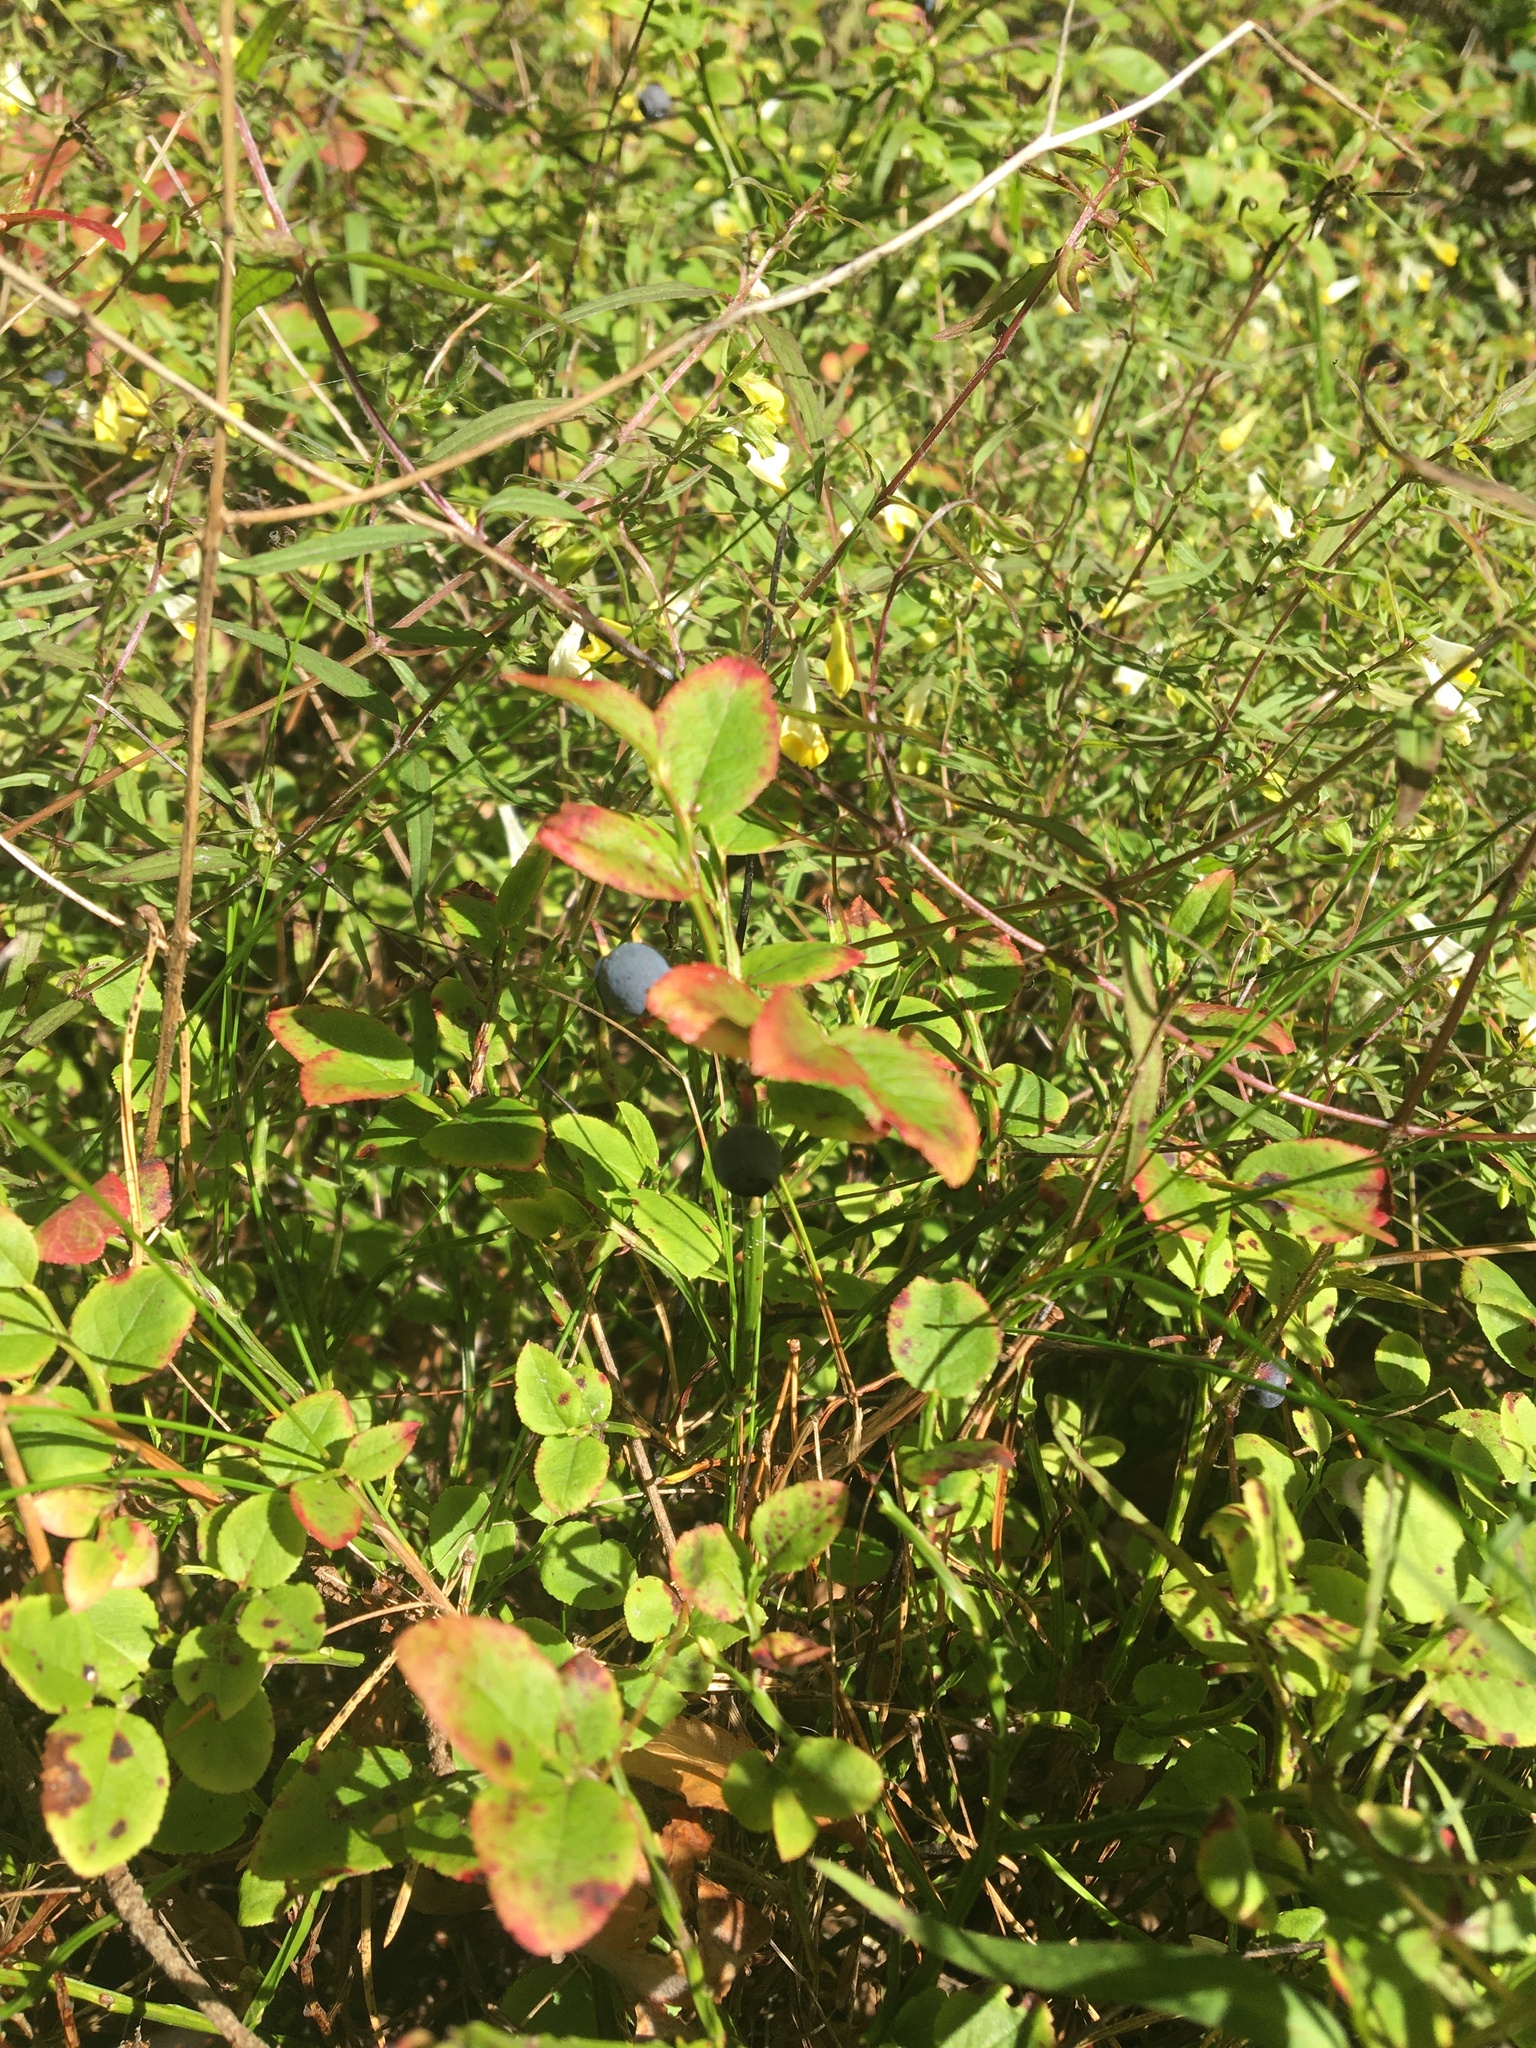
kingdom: Plantae
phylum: Tracheophyta
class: Magnoliopsida
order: Ericales
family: Ericaceae
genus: Vaccinium
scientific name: Vaccinium myrtillus
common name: Bilberry
